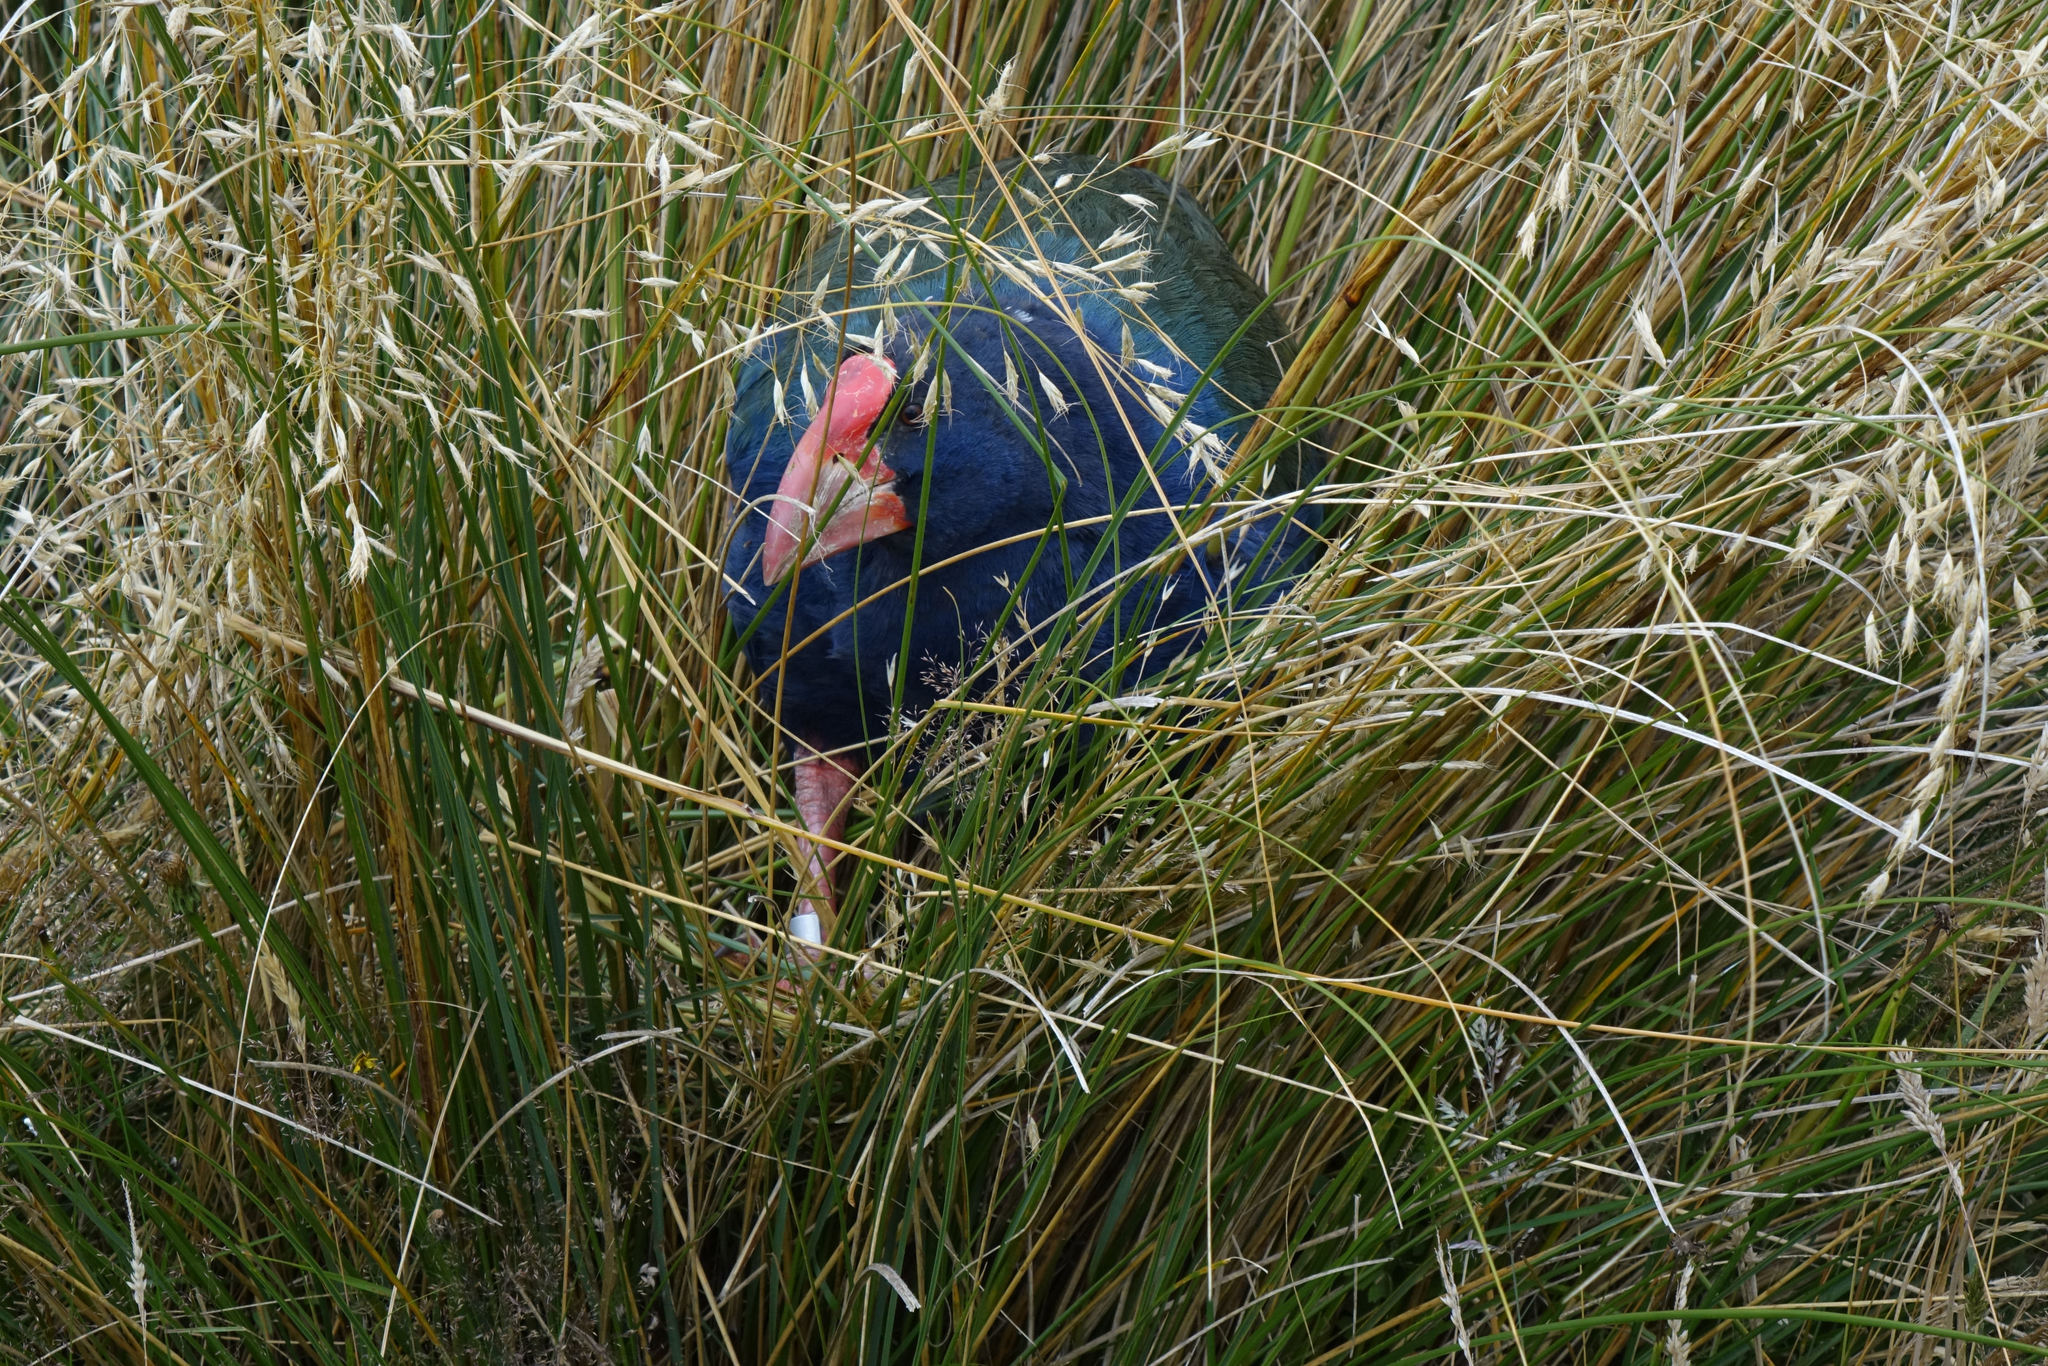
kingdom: Animalia
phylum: Chordata
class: Aves
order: Gruiformes
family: Rallidae
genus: Porphyrio
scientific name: Porphyrio hochstetteri
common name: South island takahe
